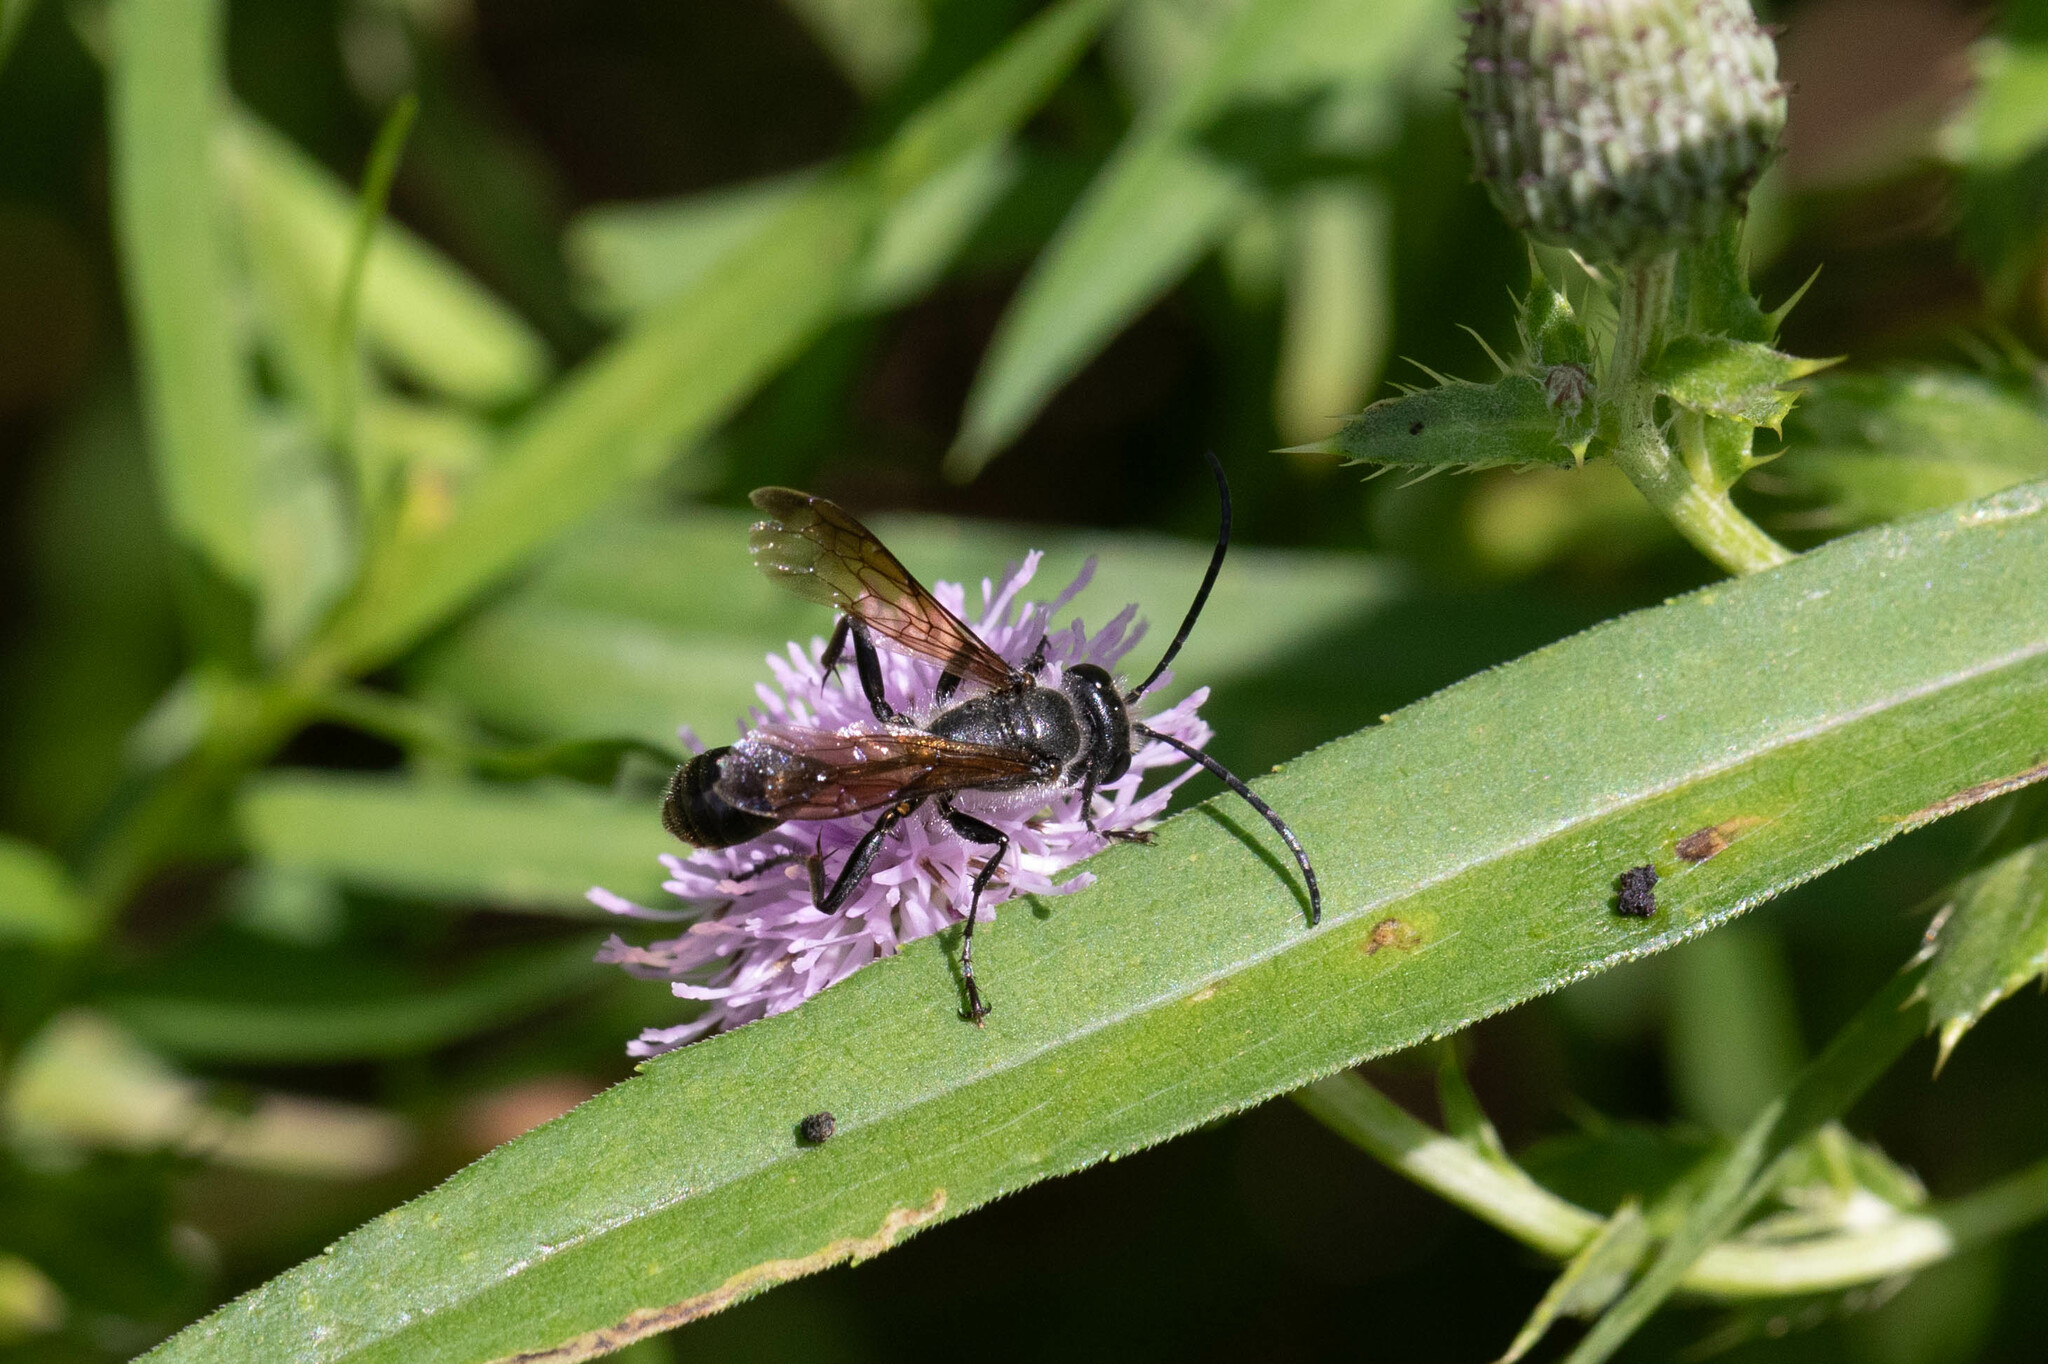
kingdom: Animalia
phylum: Arthropoda
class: Insecta
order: Hymenoptera
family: Sphecidae
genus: Isodontia
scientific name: Isodontia mexicana
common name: Mud dauber
